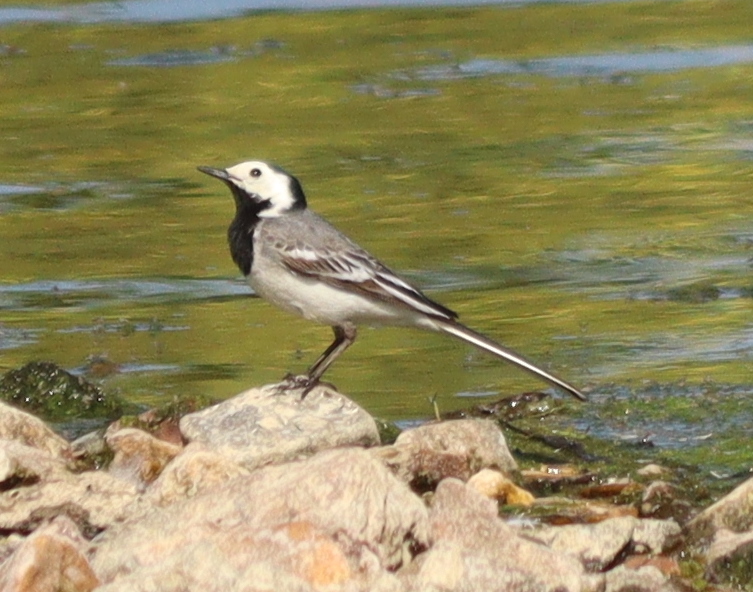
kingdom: Animalia
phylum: Chordata
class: Aves
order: Passeriformes
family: Motacillidae
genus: Motacilla
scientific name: Motacilla alba
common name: White wagtail
